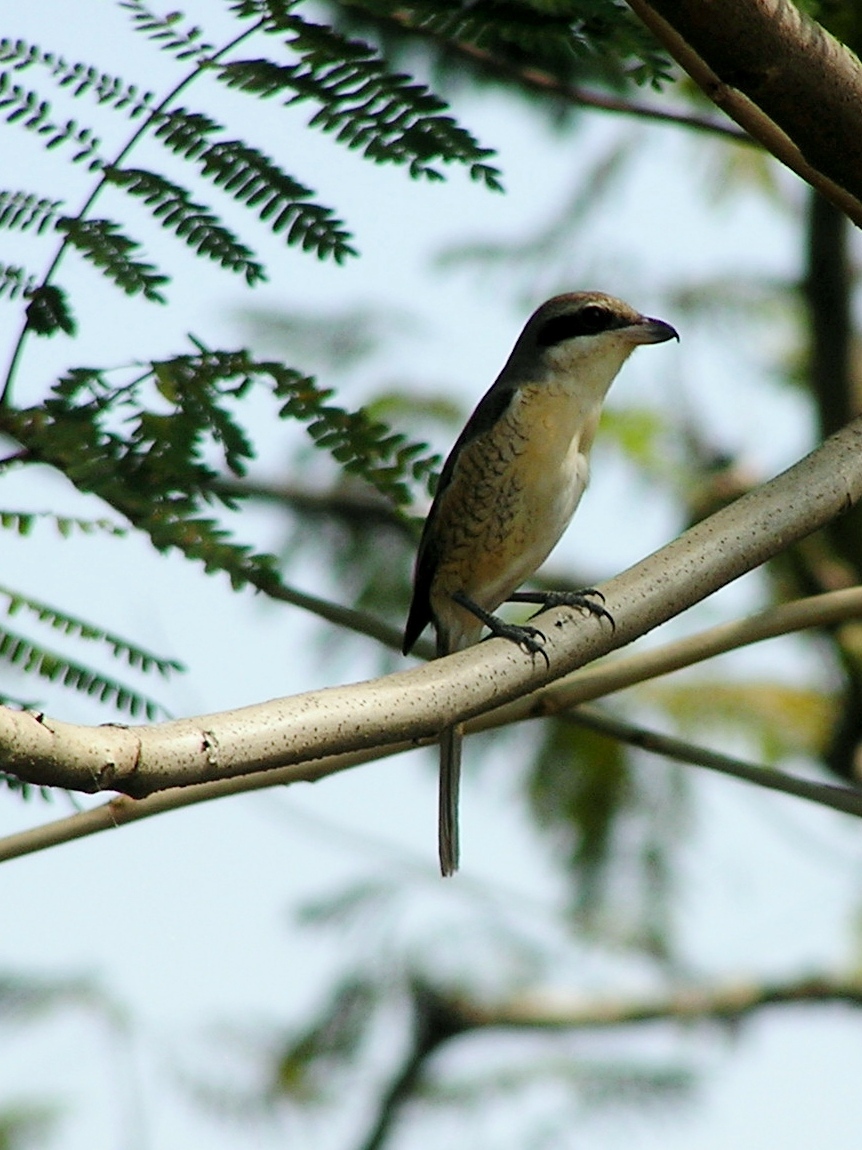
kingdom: Animalia
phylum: Chordata
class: Aves
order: Passeriformes
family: Laniidae
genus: Lanius
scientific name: Lanius cristatus
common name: Brown shrike
